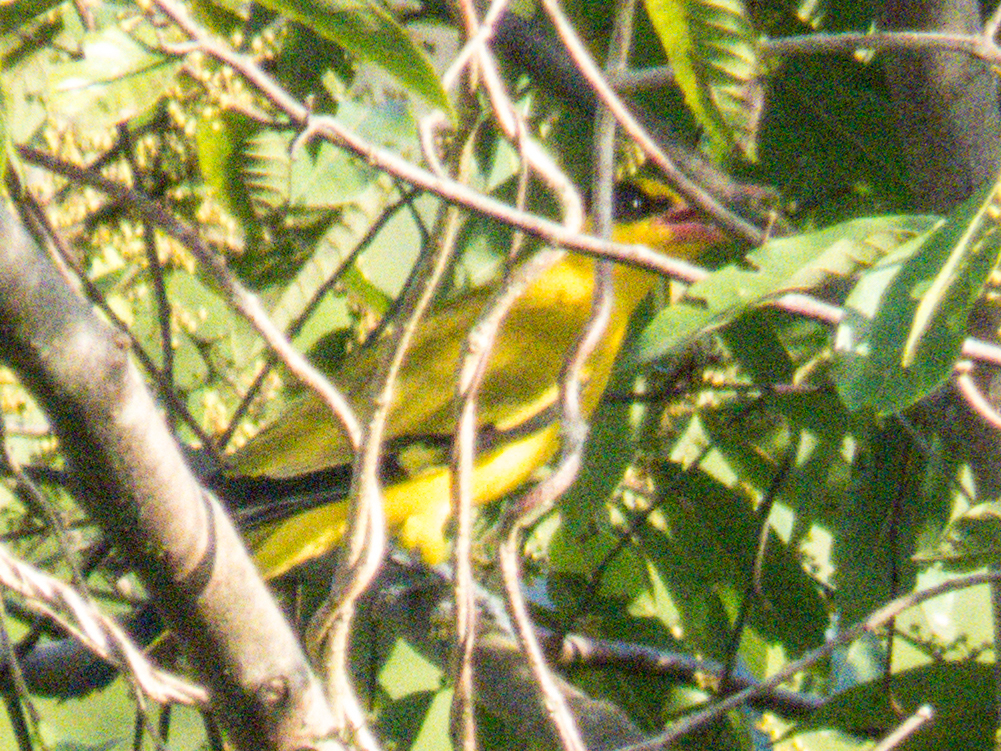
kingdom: Animalia
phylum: Chordata
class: Aves
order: Passeriformes
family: Oriolidae
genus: Oriolus
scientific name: Oriolus chinensis
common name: Black-naped oriole
